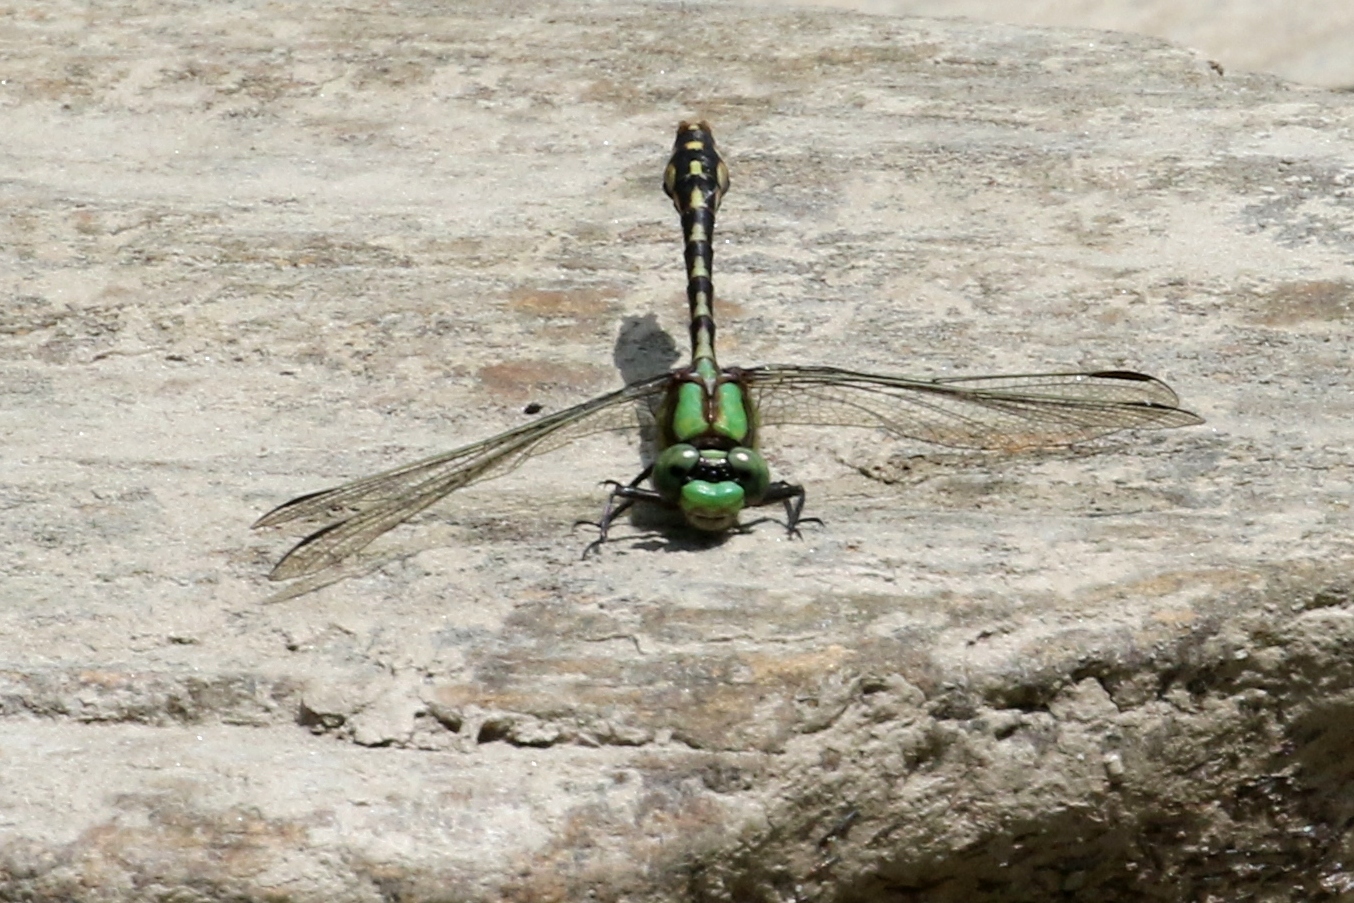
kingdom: Animalia
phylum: Arthropoda
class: Insecta
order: Odonata
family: Gomphidae
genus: Ophiogomphus
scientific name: Ophiogomphus carolus
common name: Riffle snaketail
